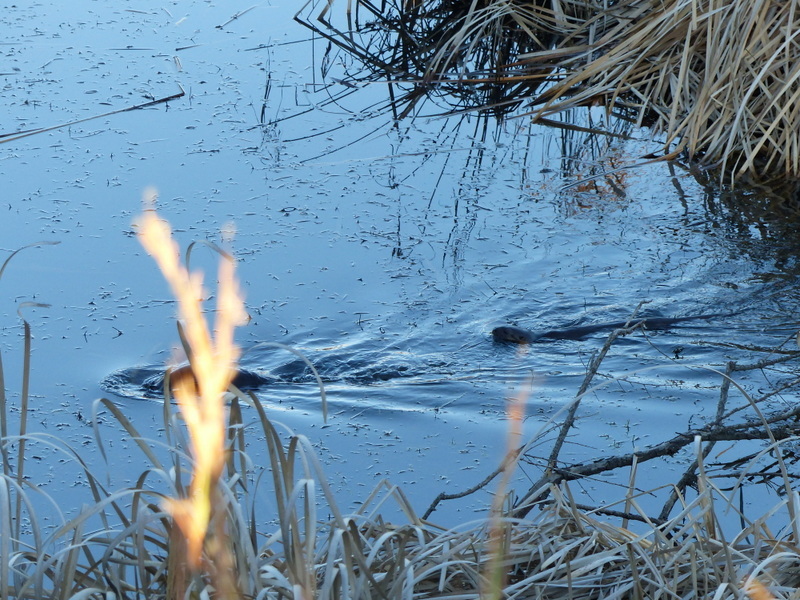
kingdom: Animalia
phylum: Chordata
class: Mammalia
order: Carnivora
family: Mustelidae
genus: Hydrictis
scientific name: Hydrictis maculicollis
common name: Spotted-necked otter
